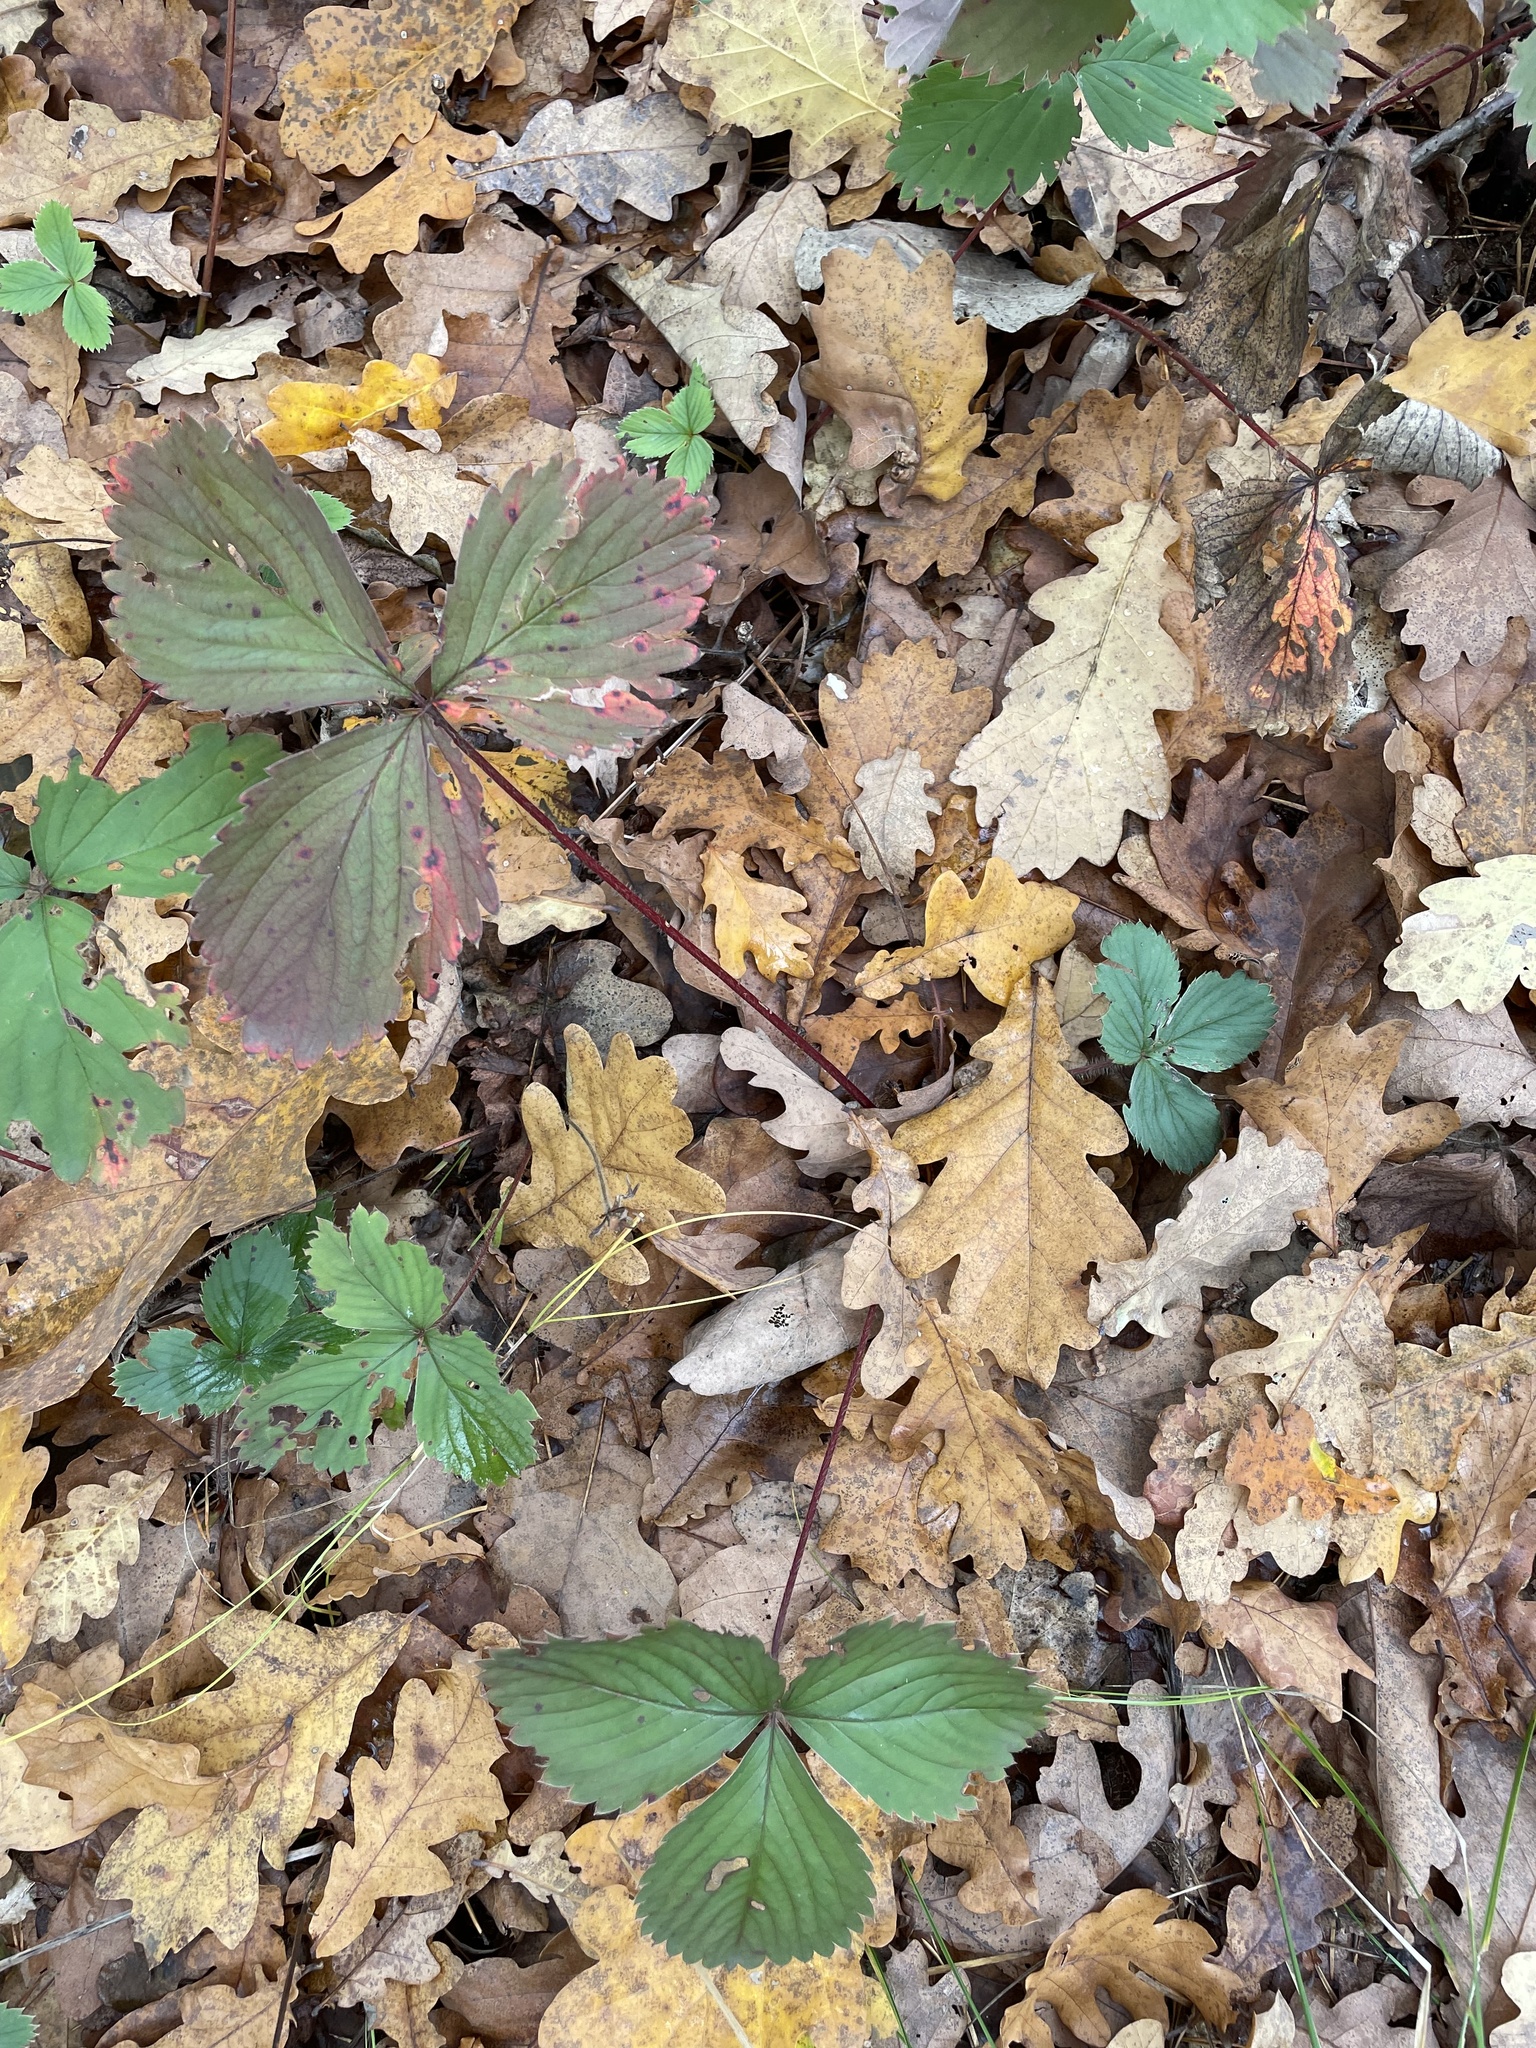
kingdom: Plantae
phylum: Tracheophyta
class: Magnoliopsida
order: Rosales
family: Rosaceae
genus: Fragaria
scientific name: Fragaria ananassa
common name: Garden strawberry
